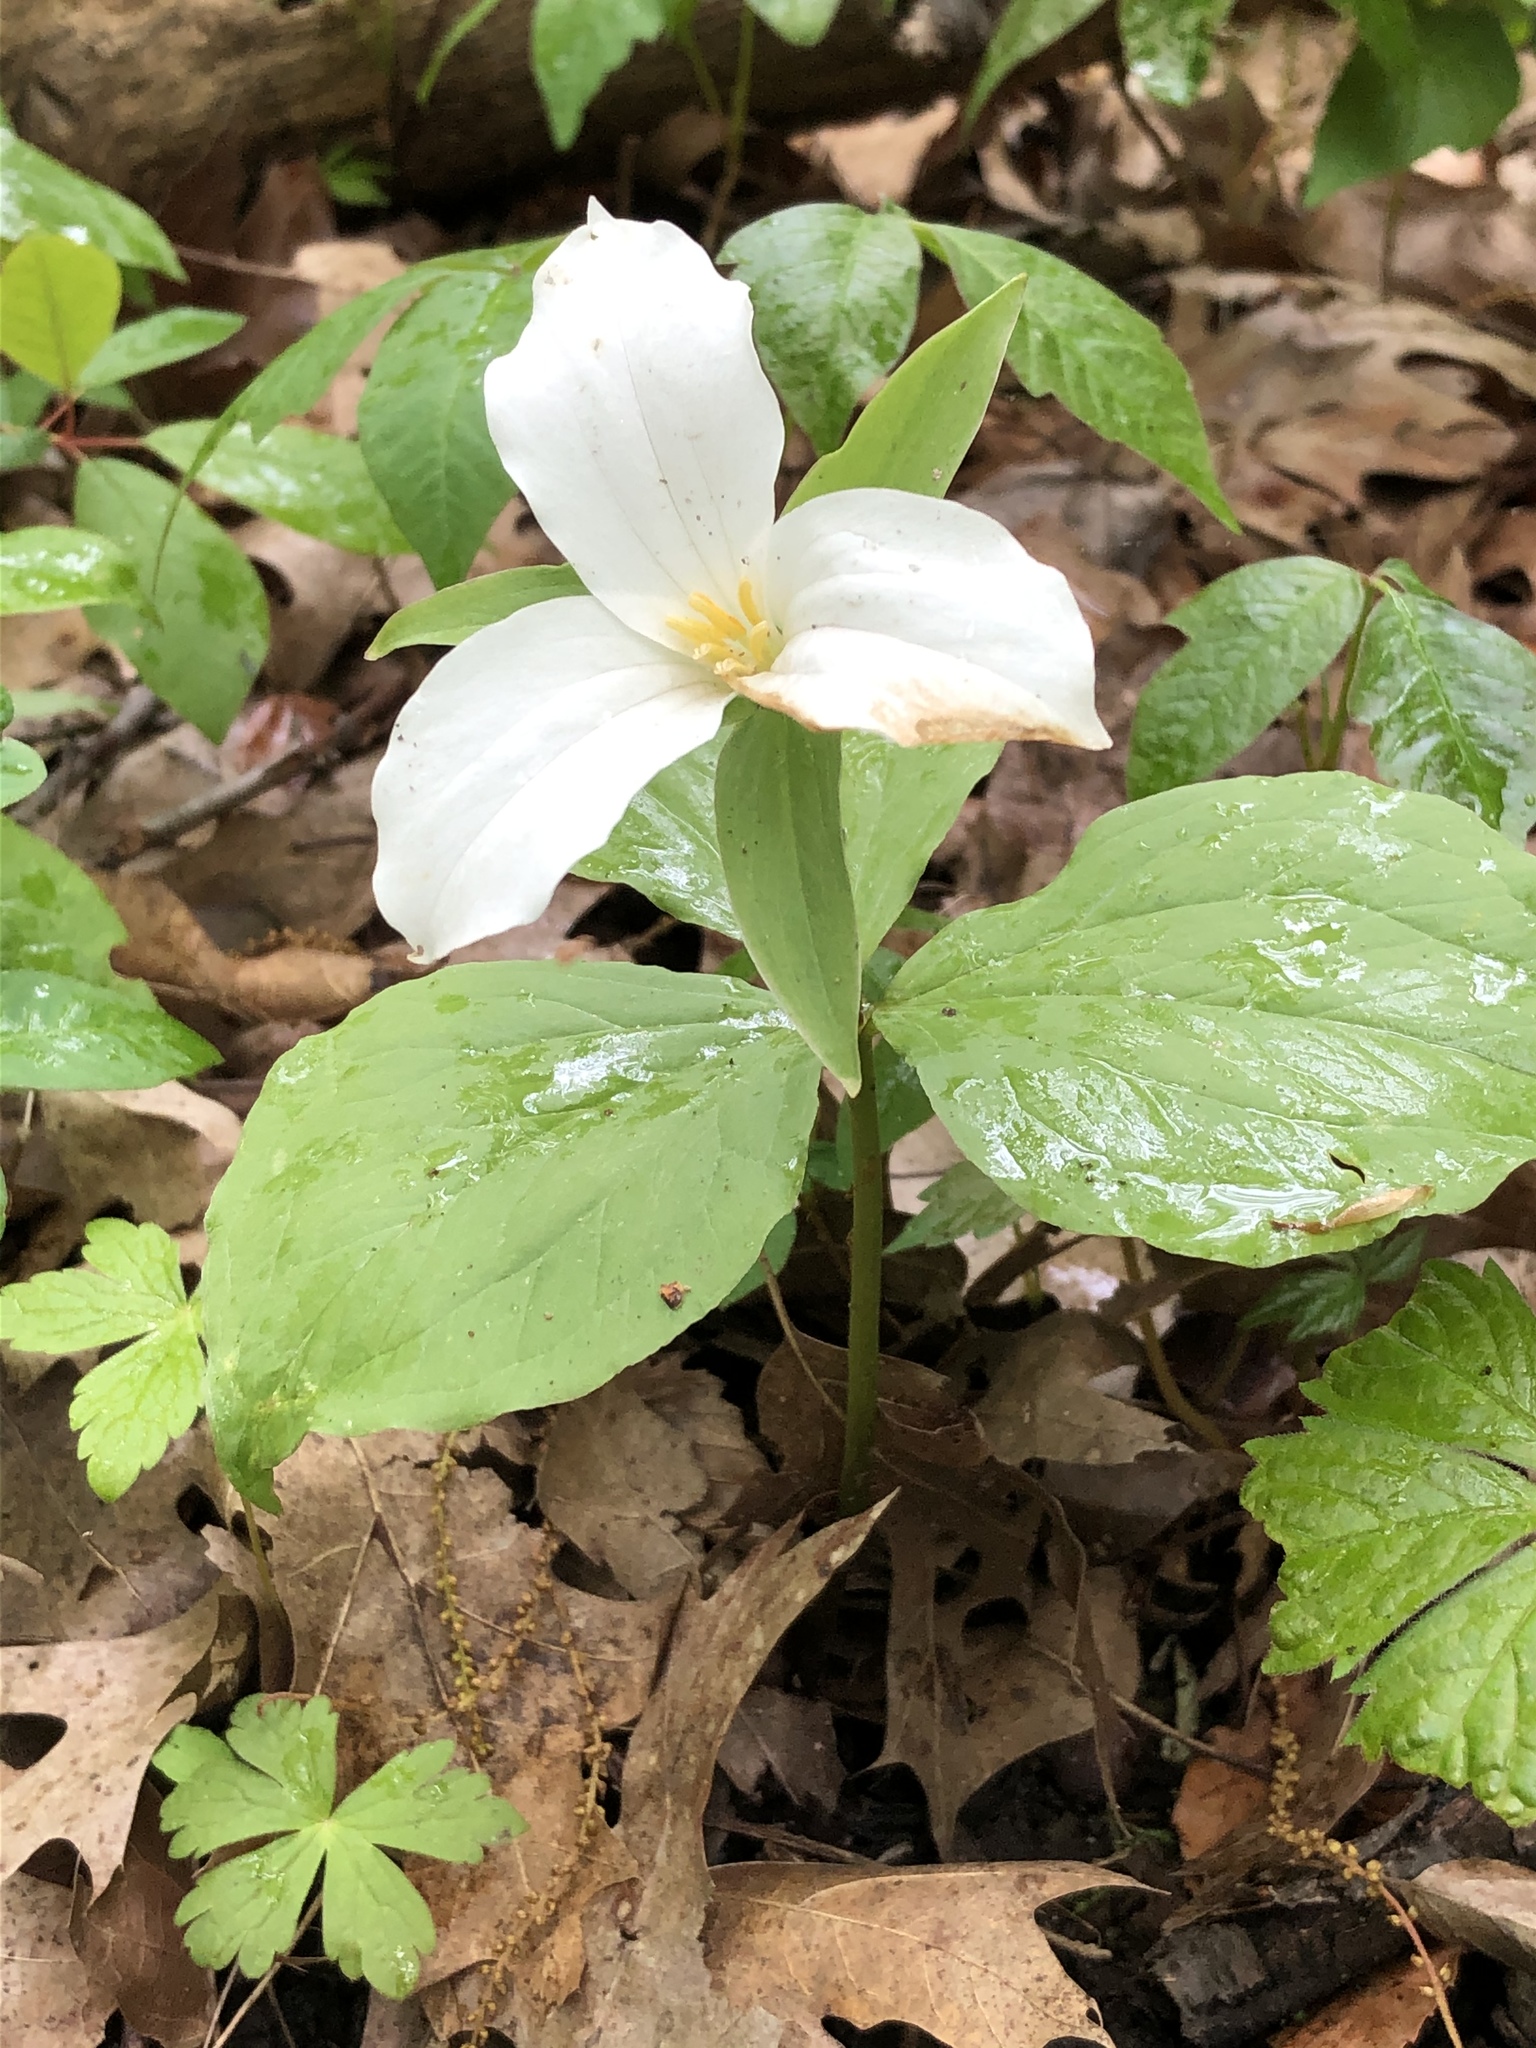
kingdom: Plantae
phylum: Tracheophyta
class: Liliopsida
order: Liliales
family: Melanthiaceae
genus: Trillium
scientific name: Trillium grandiflorum
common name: Great white trillium
